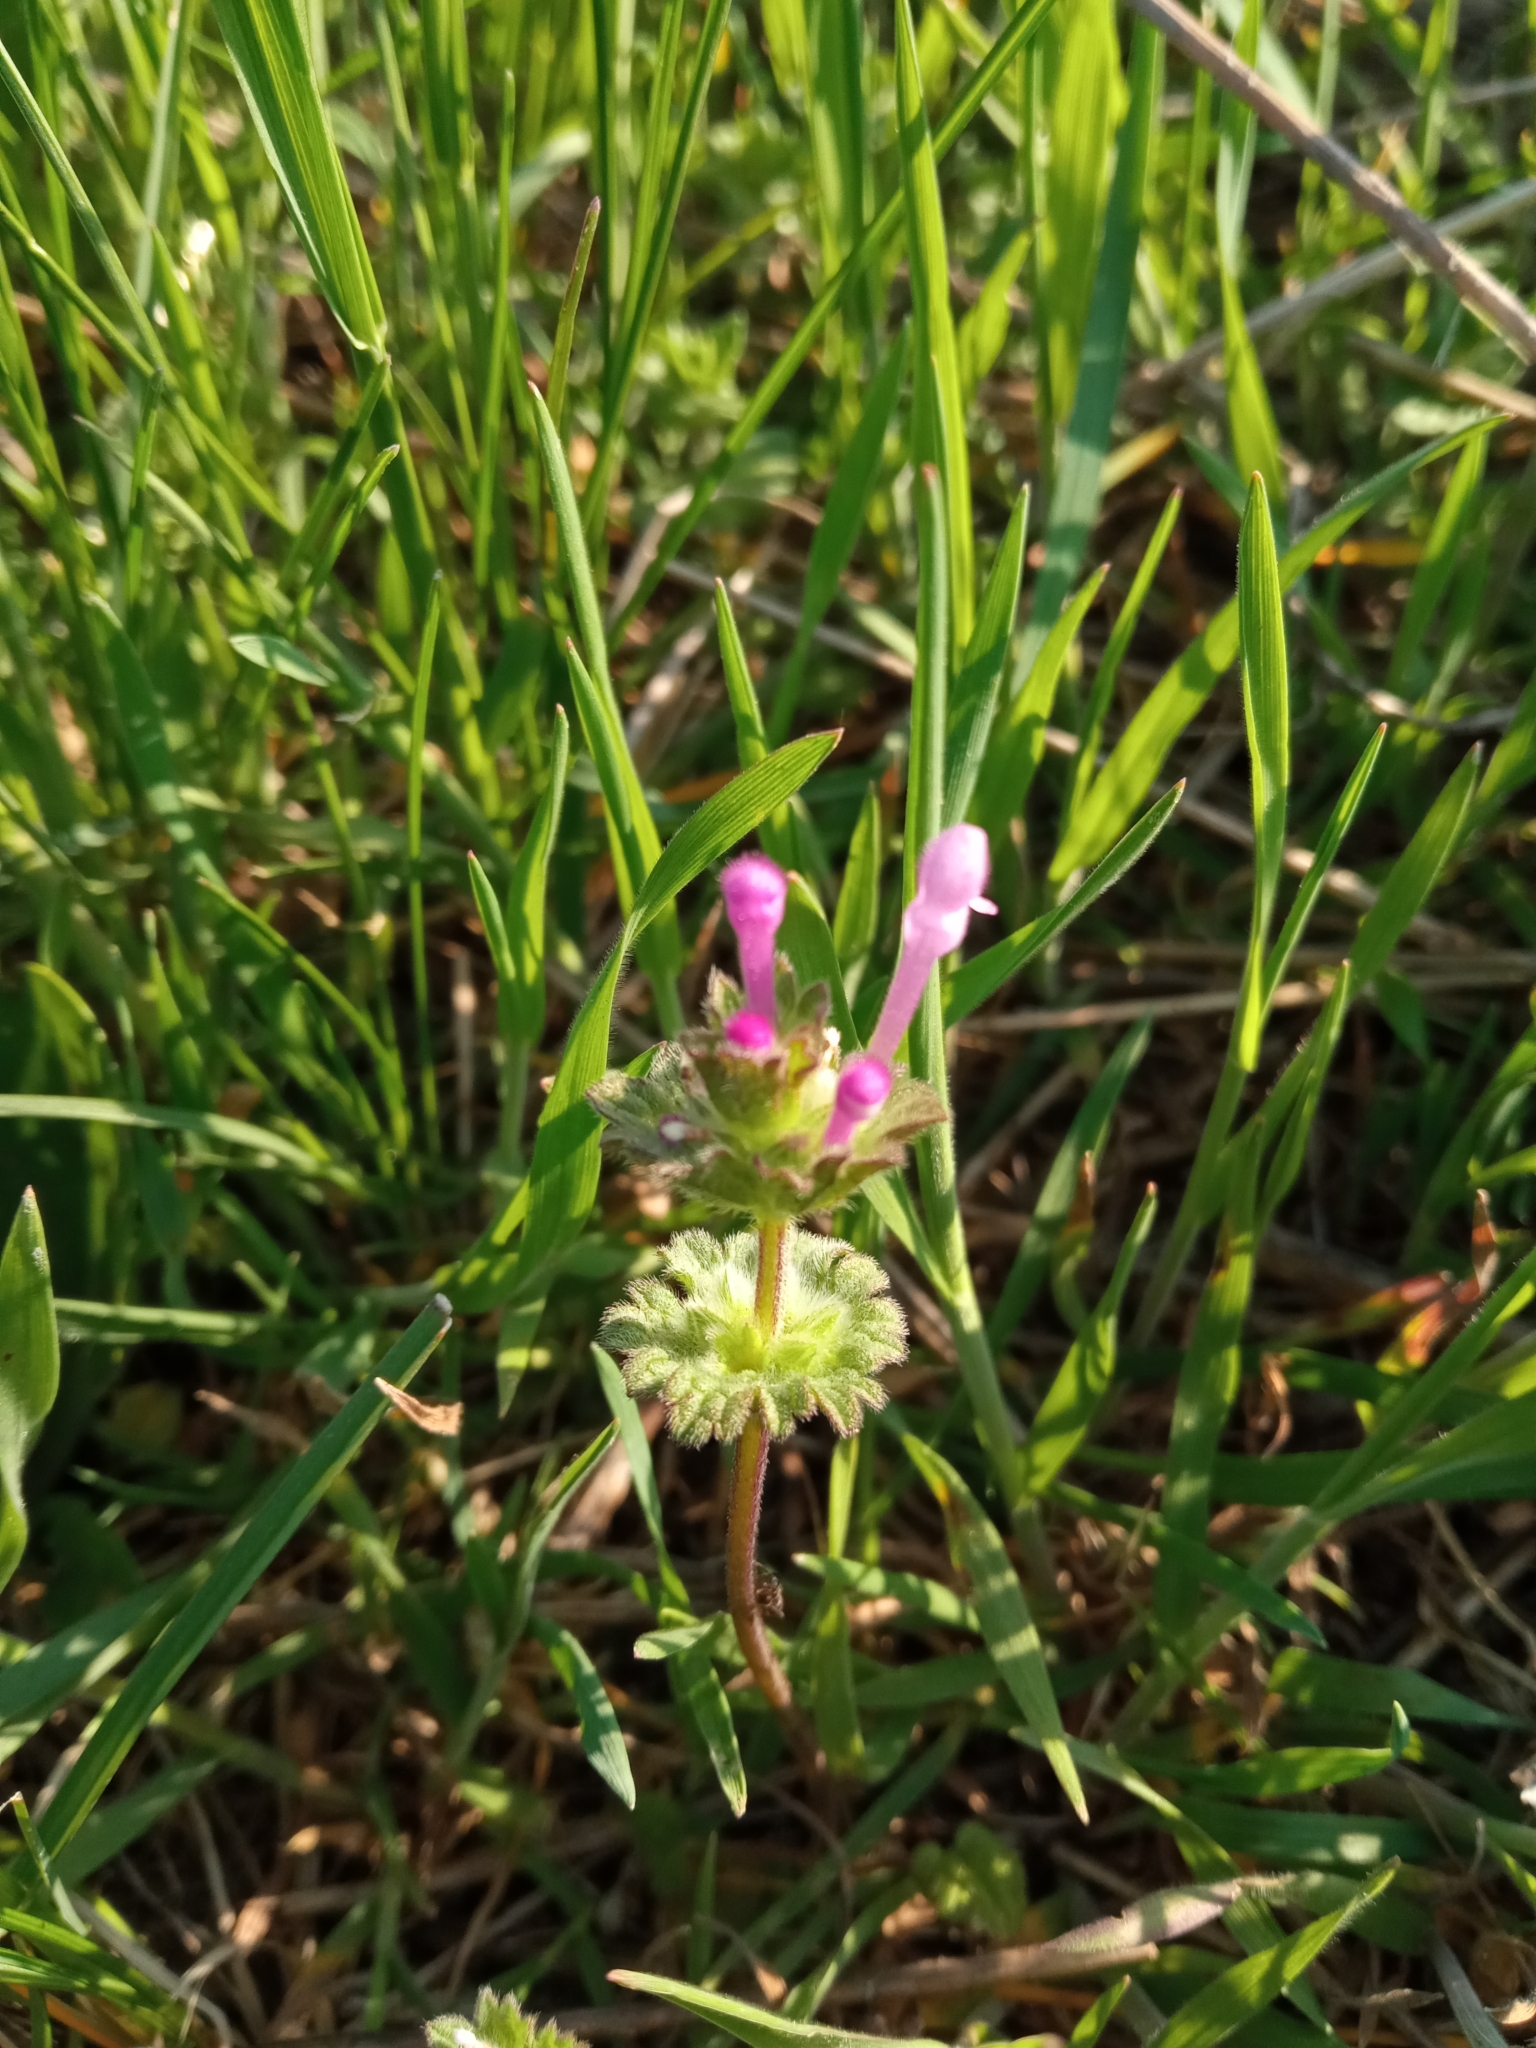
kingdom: Plantae
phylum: Tracheophyta
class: Magnoliopsida
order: Lamiales
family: Lamiaceae
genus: Lamium
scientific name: Lamium amplexicaule
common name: Henbit dead-nettle
